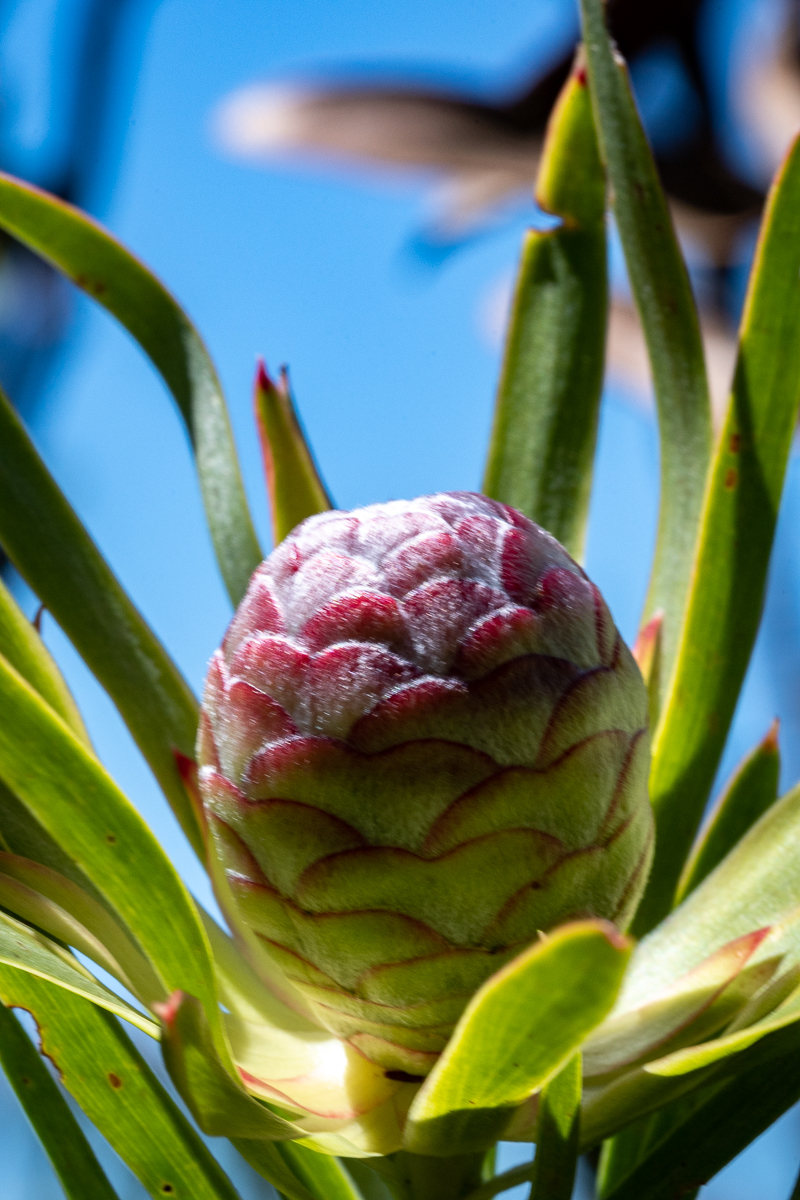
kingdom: Plantae
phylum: Tracheophyta
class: Magnoliopsida
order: Proteales
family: Proteaceae
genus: Leucadendron
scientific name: Leucadendron xanthoconus
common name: Sickle-leaf conebush
